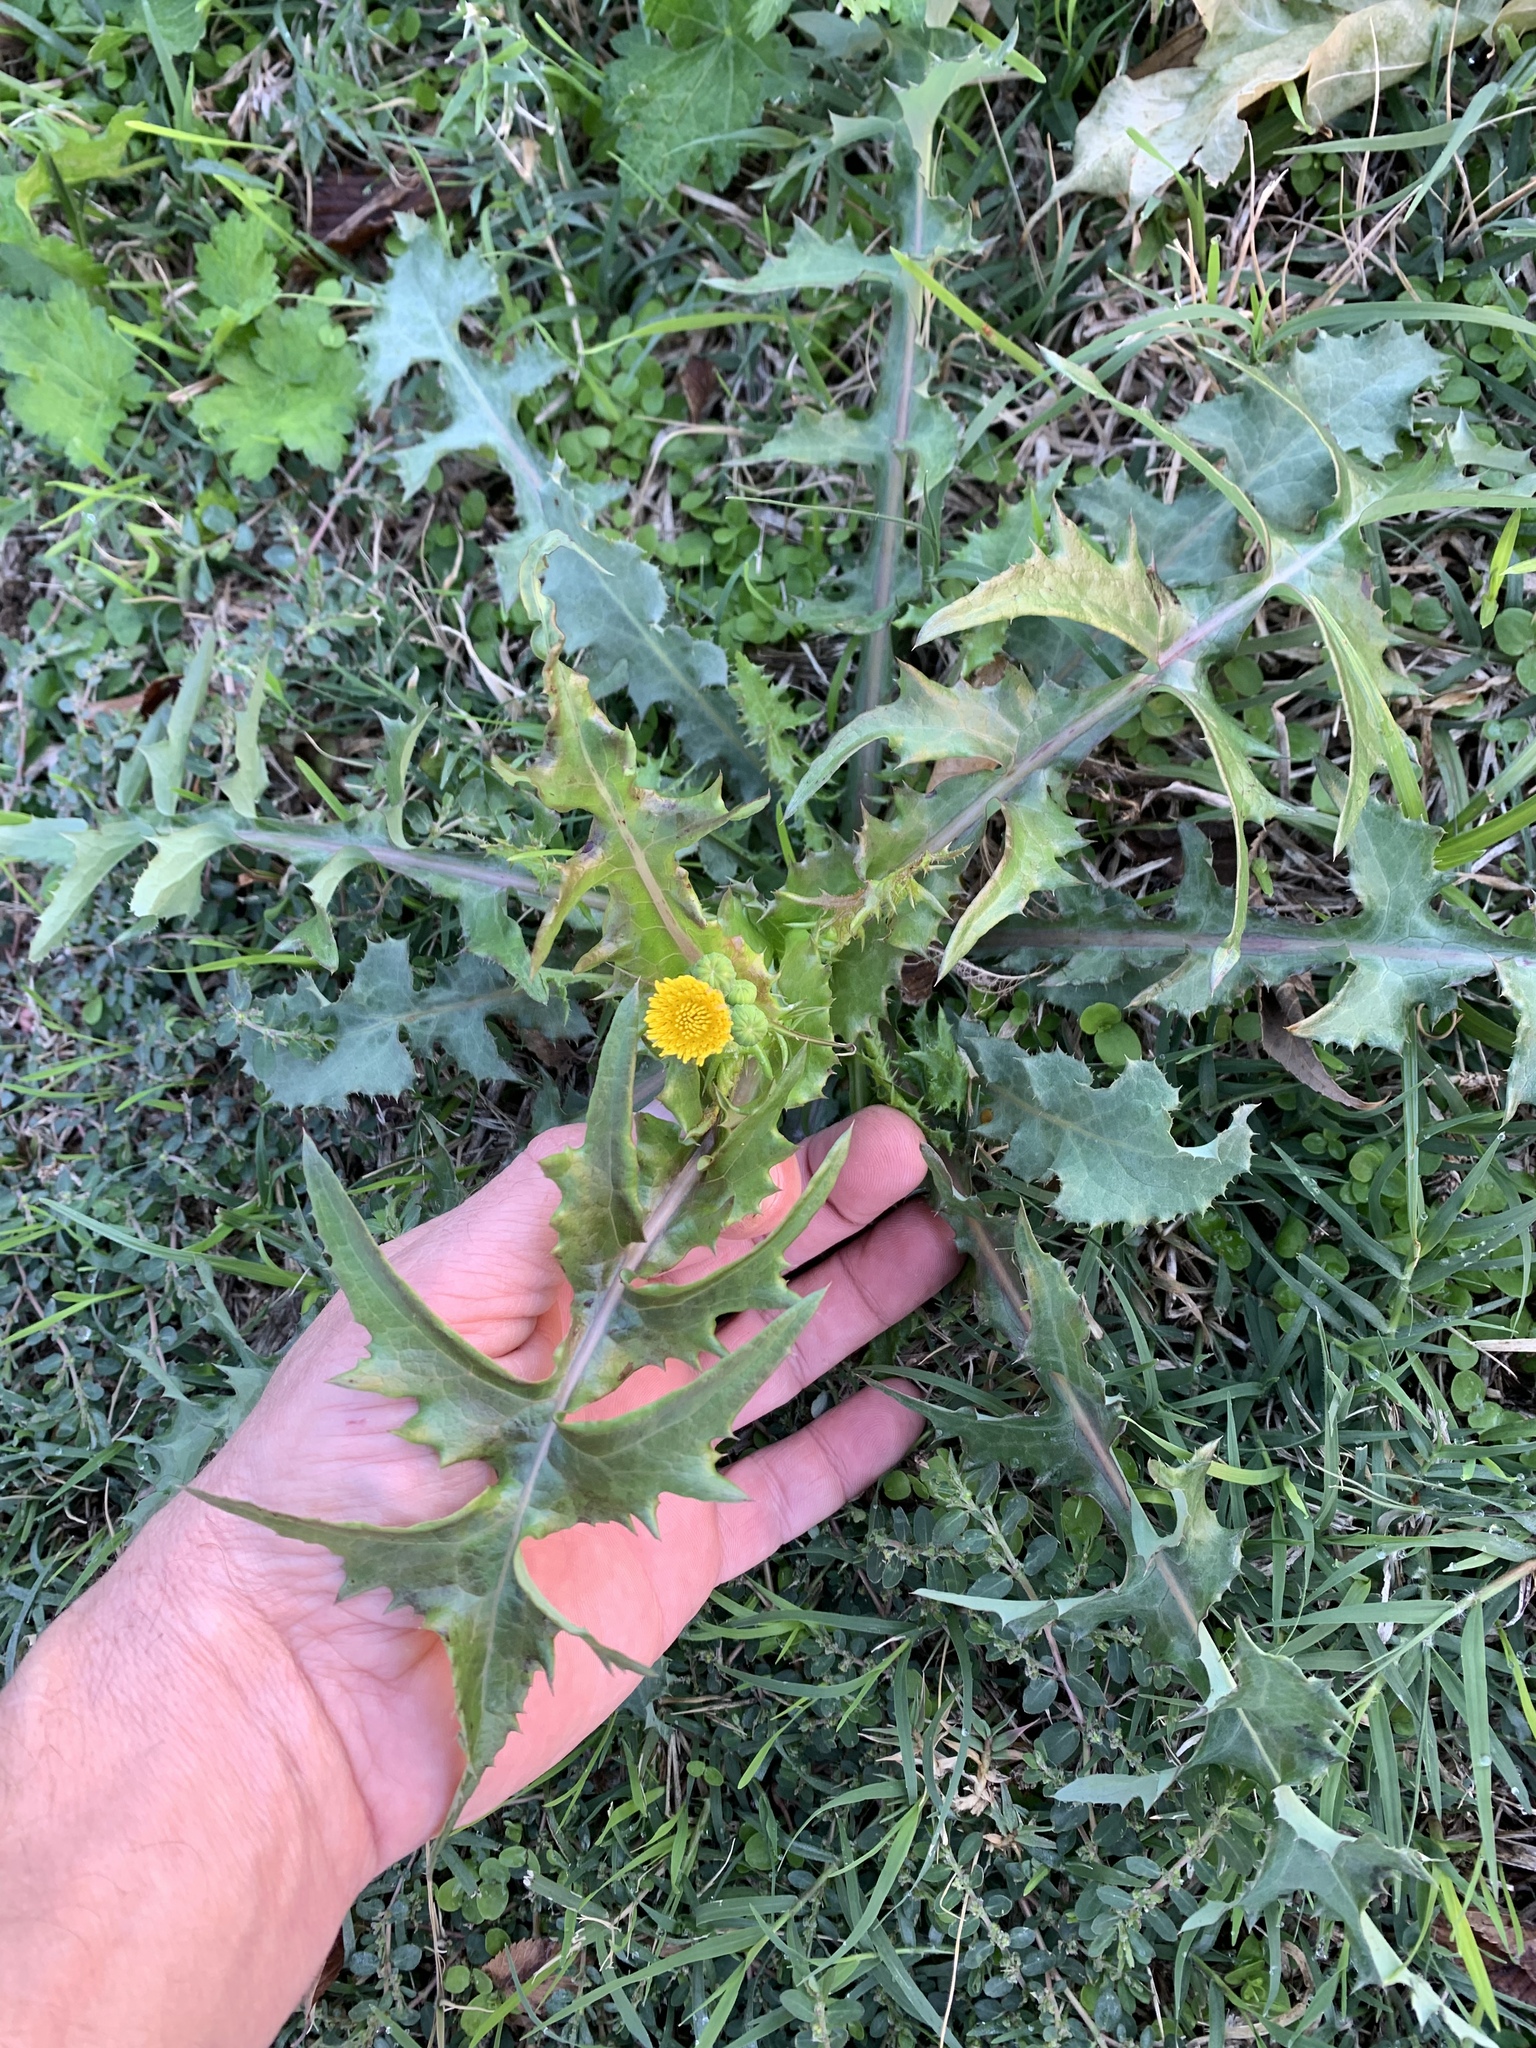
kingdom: Plantae
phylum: Tracheophyta
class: Magnoliopsida
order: Asterales
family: Asteraceae
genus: Sonchus
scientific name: Sonchus oleraceus
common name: Common sowthistle
